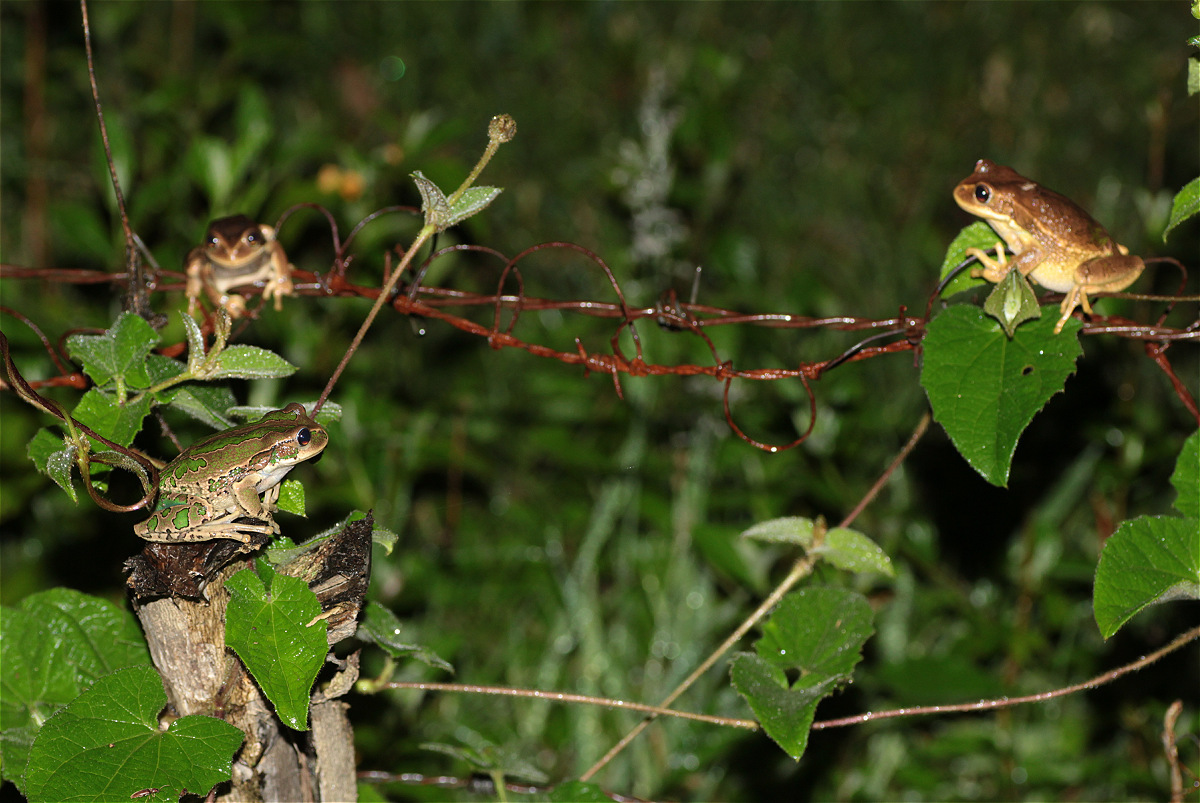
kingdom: Animalia
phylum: Chordata
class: Amphibia
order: Anura
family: Hemiphractidae
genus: Gastrotheca
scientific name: Gastrotheca cuencana
